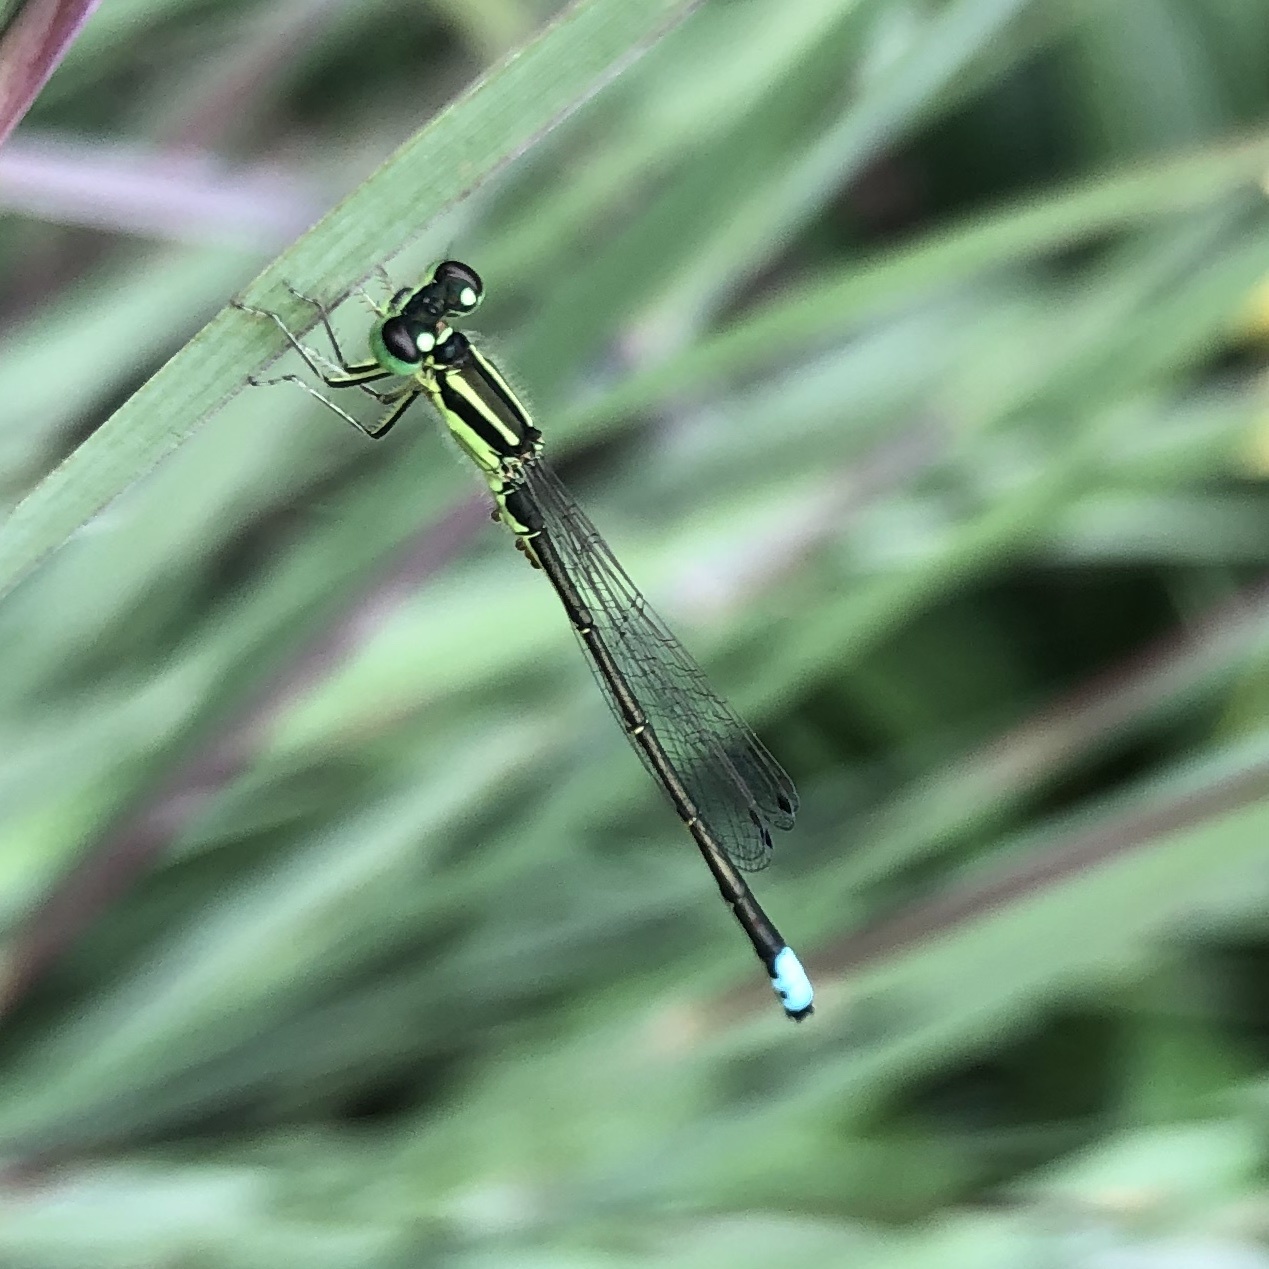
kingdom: Animalia
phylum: Arthropoda
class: Insecta
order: Odonata
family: Coenagrionidae
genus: Ischnura
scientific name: Ischnura verticalis
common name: Eastern forktail
